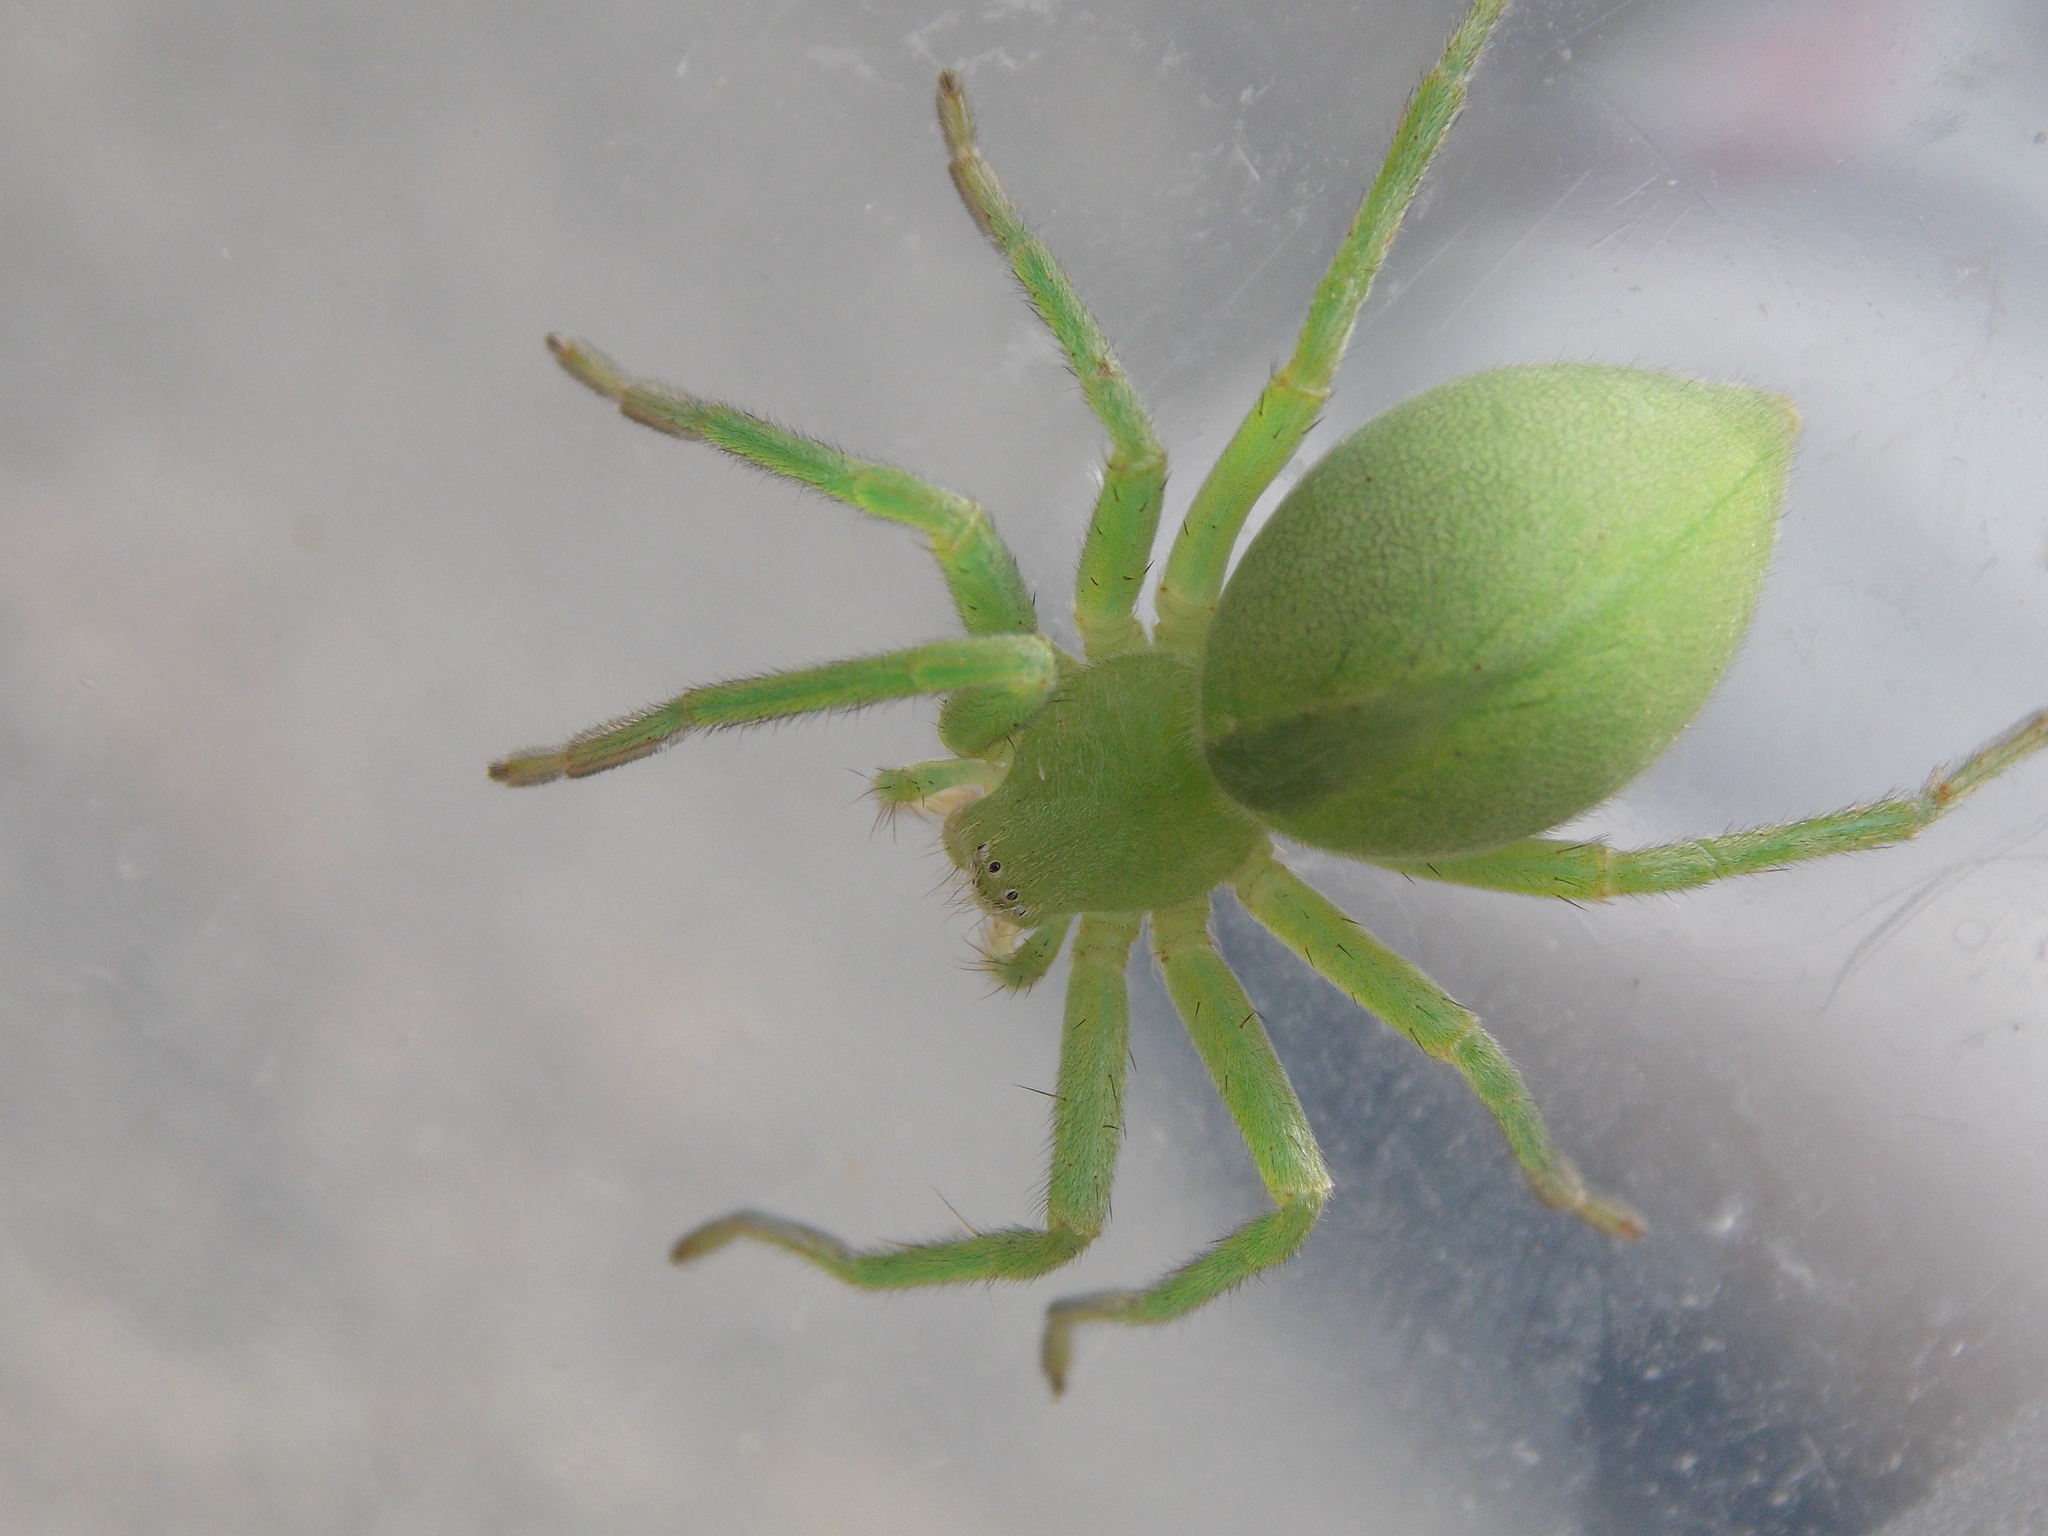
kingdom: Animalia
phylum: Arthropoda
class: Arachnida
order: Araneae
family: Sparassidae
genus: Micrommata
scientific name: Micrommata virescens
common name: Green spider
